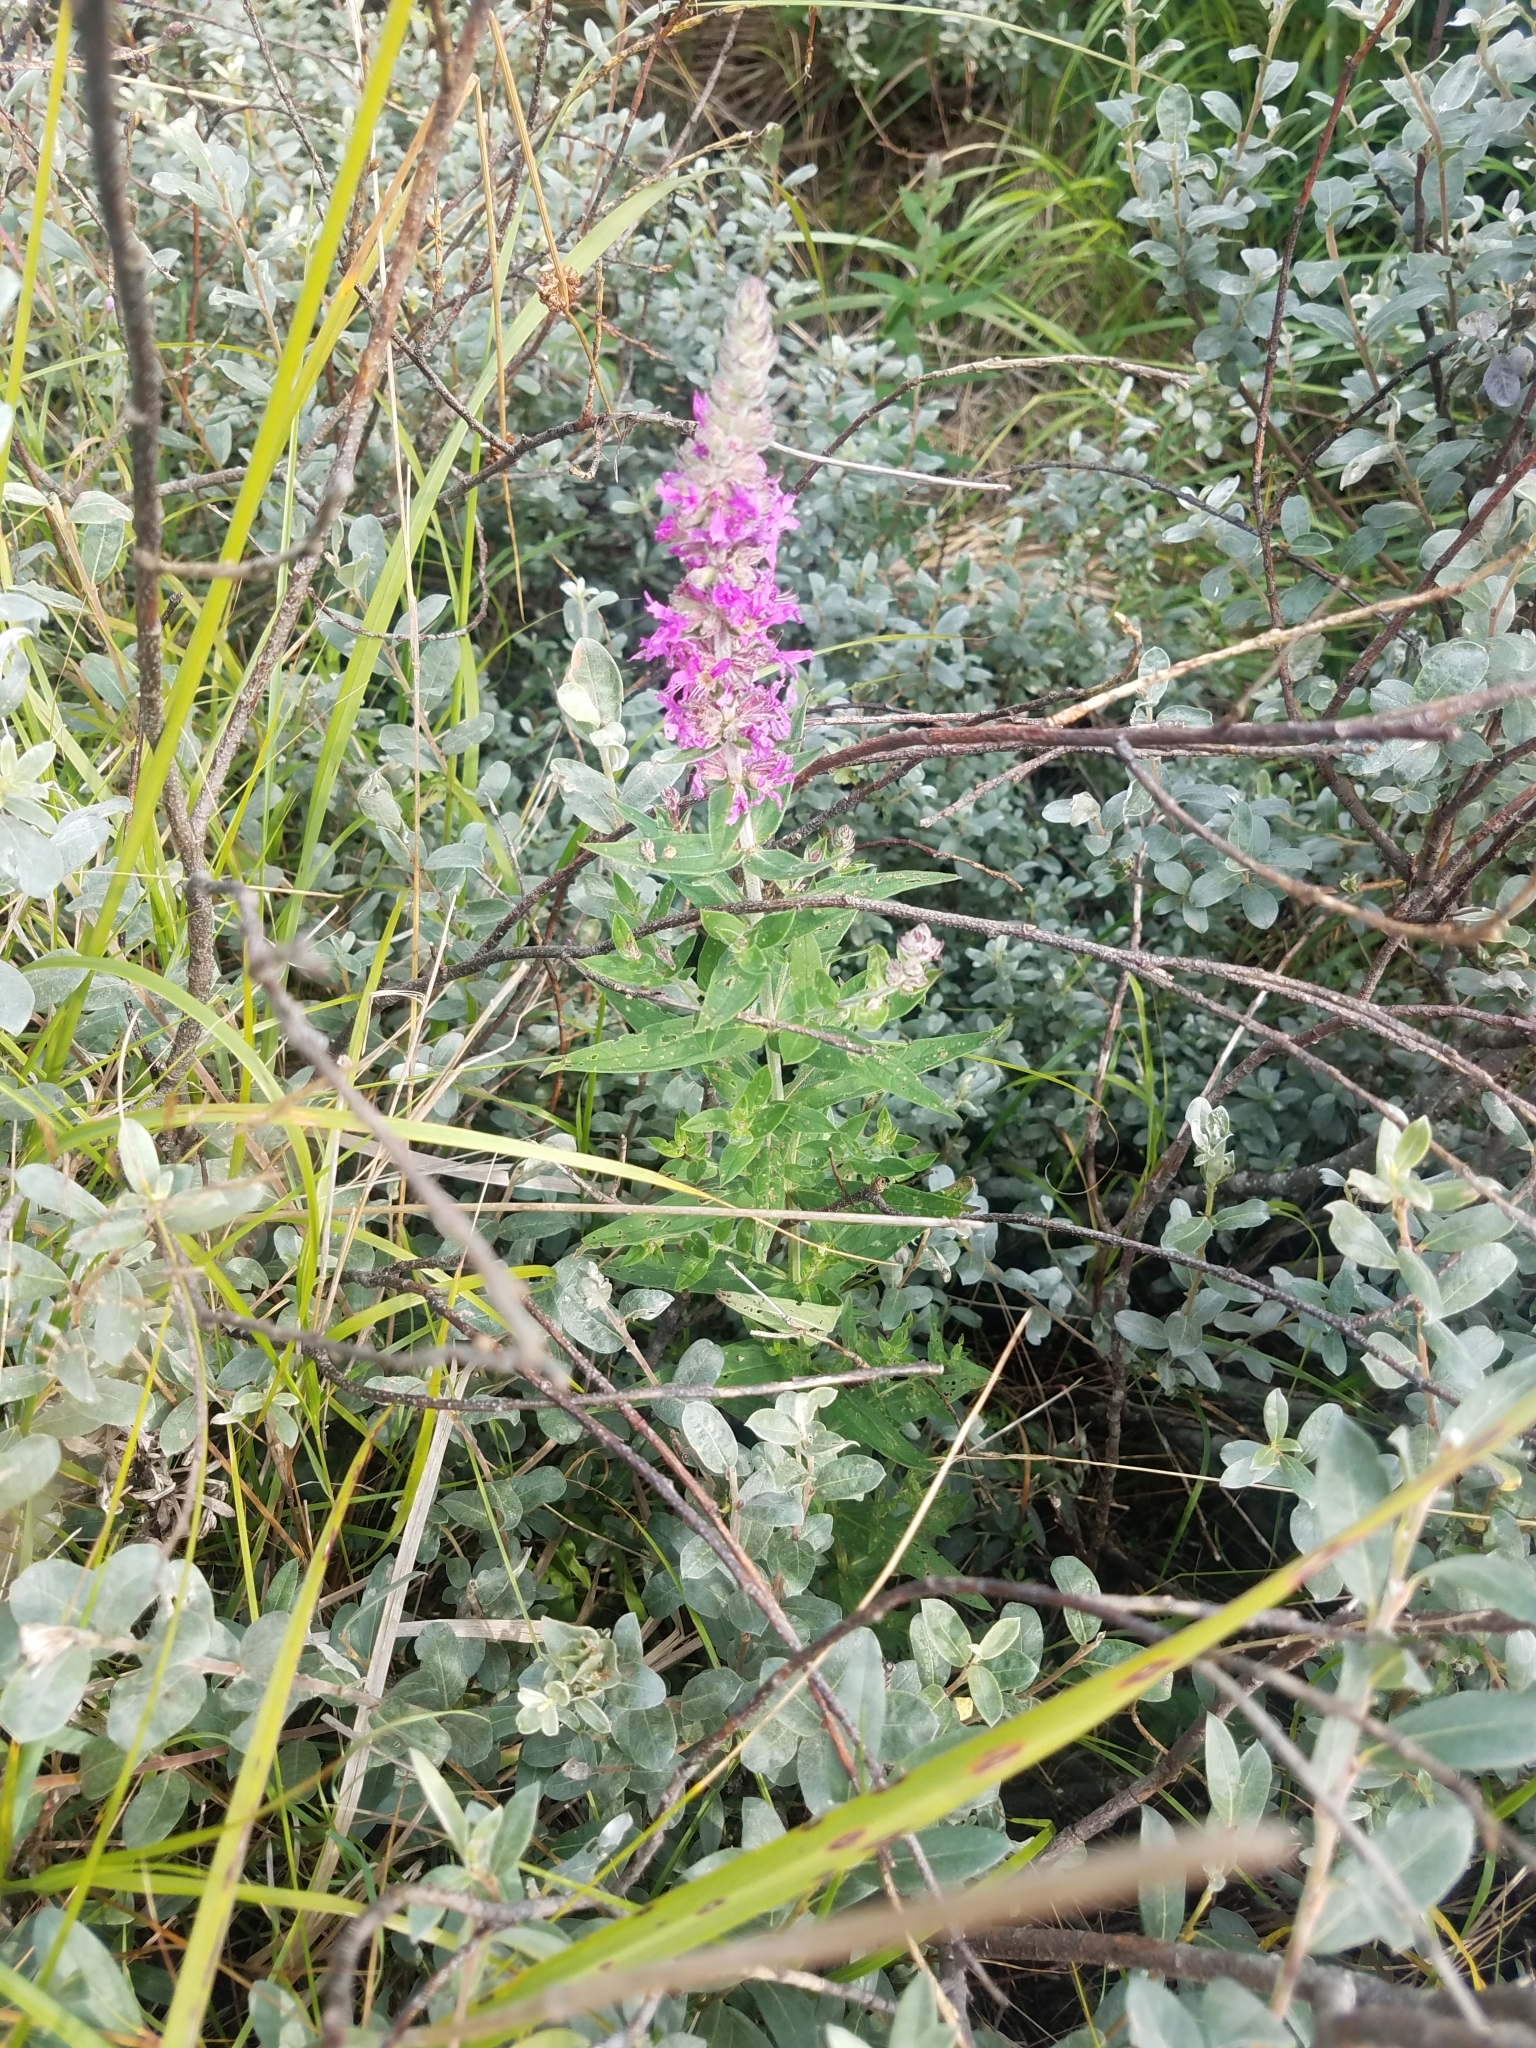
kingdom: Plantae
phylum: Tracheophyta
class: Magnoliopsida
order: Myrtales
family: Lythraceae
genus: Lythrum
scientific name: Lythrum salicaria
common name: Purple loosestrife
